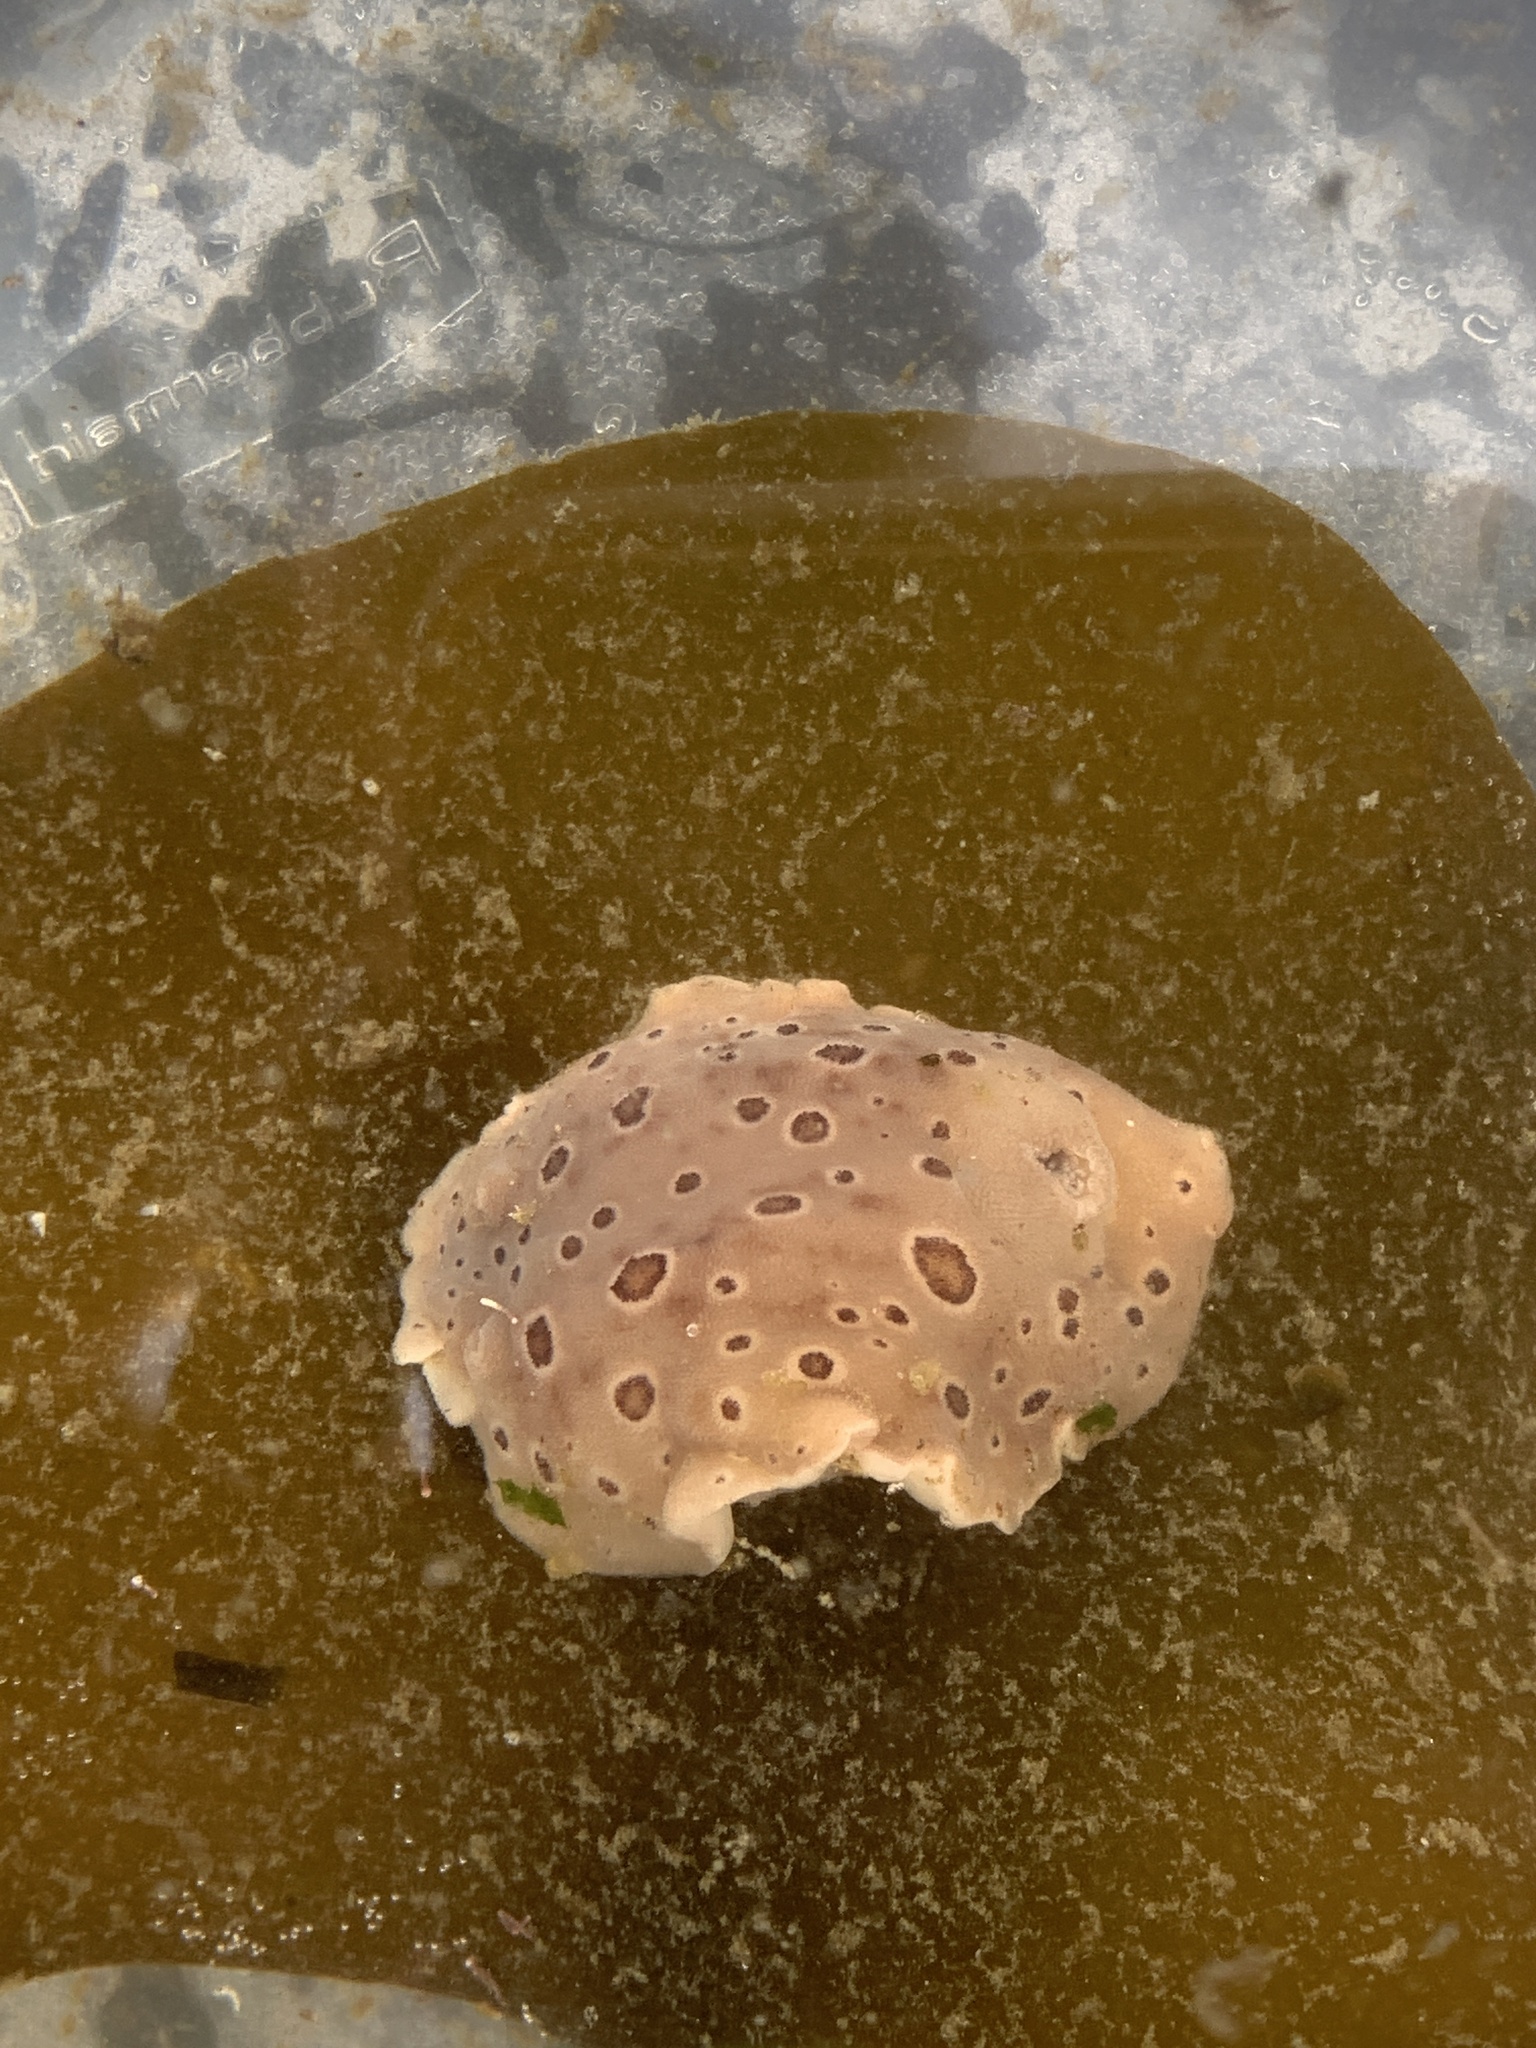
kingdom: Animalia
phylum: Mollusca
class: Gastropoda
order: Nudibranchia
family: Discodorididae
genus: Diaulula
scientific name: Diaulula odonoghuei
